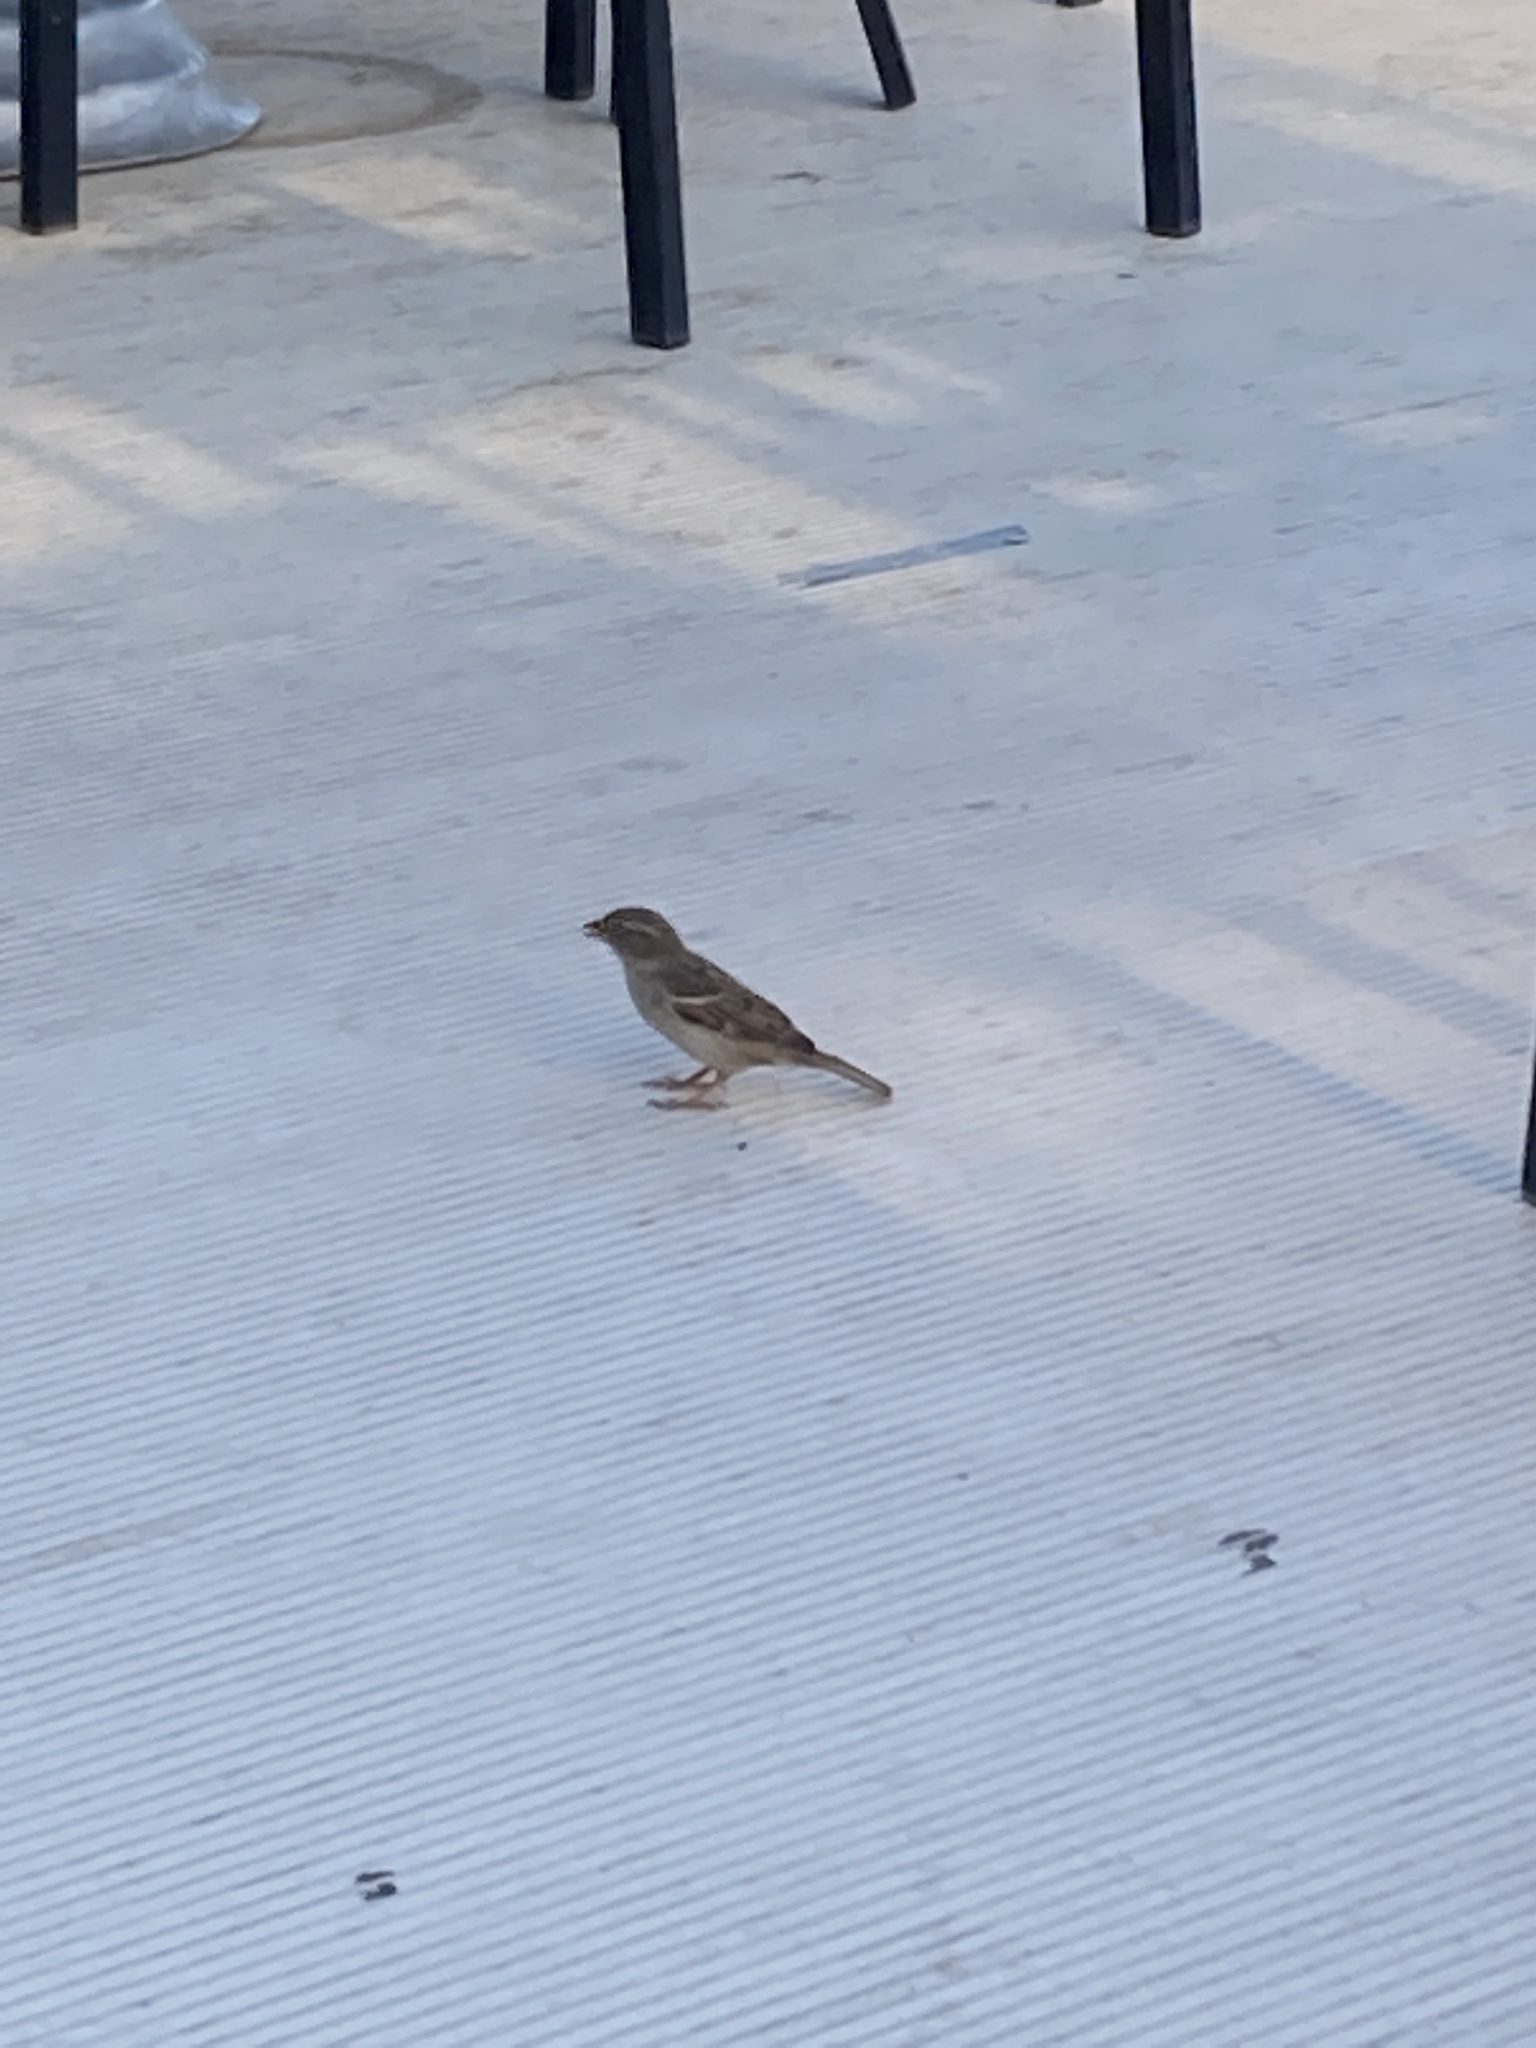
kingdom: Animalia
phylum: Chordata
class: Aves
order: Passeriformes
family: Passeridae
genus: Passer
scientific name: Passer domesticus
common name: House sparrow
